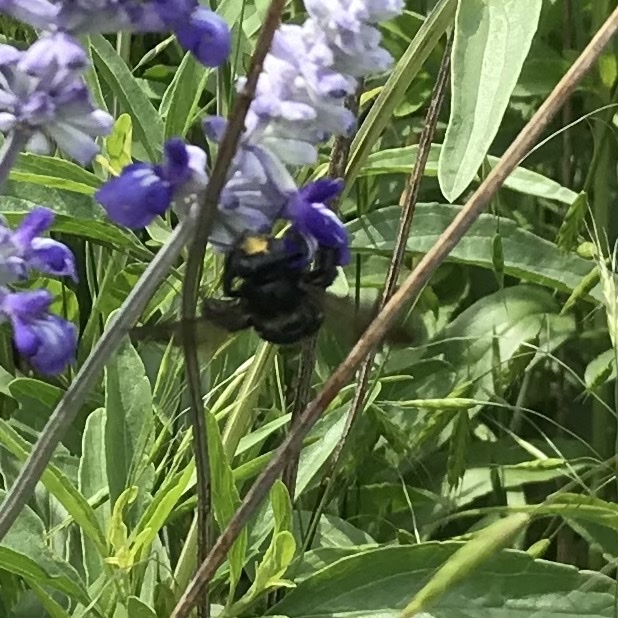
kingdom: Animalia
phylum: Arthropoda
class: Insecta
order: Hymenoptera
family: Apidae
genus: Xylocopa
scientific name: Xylocopa micans
